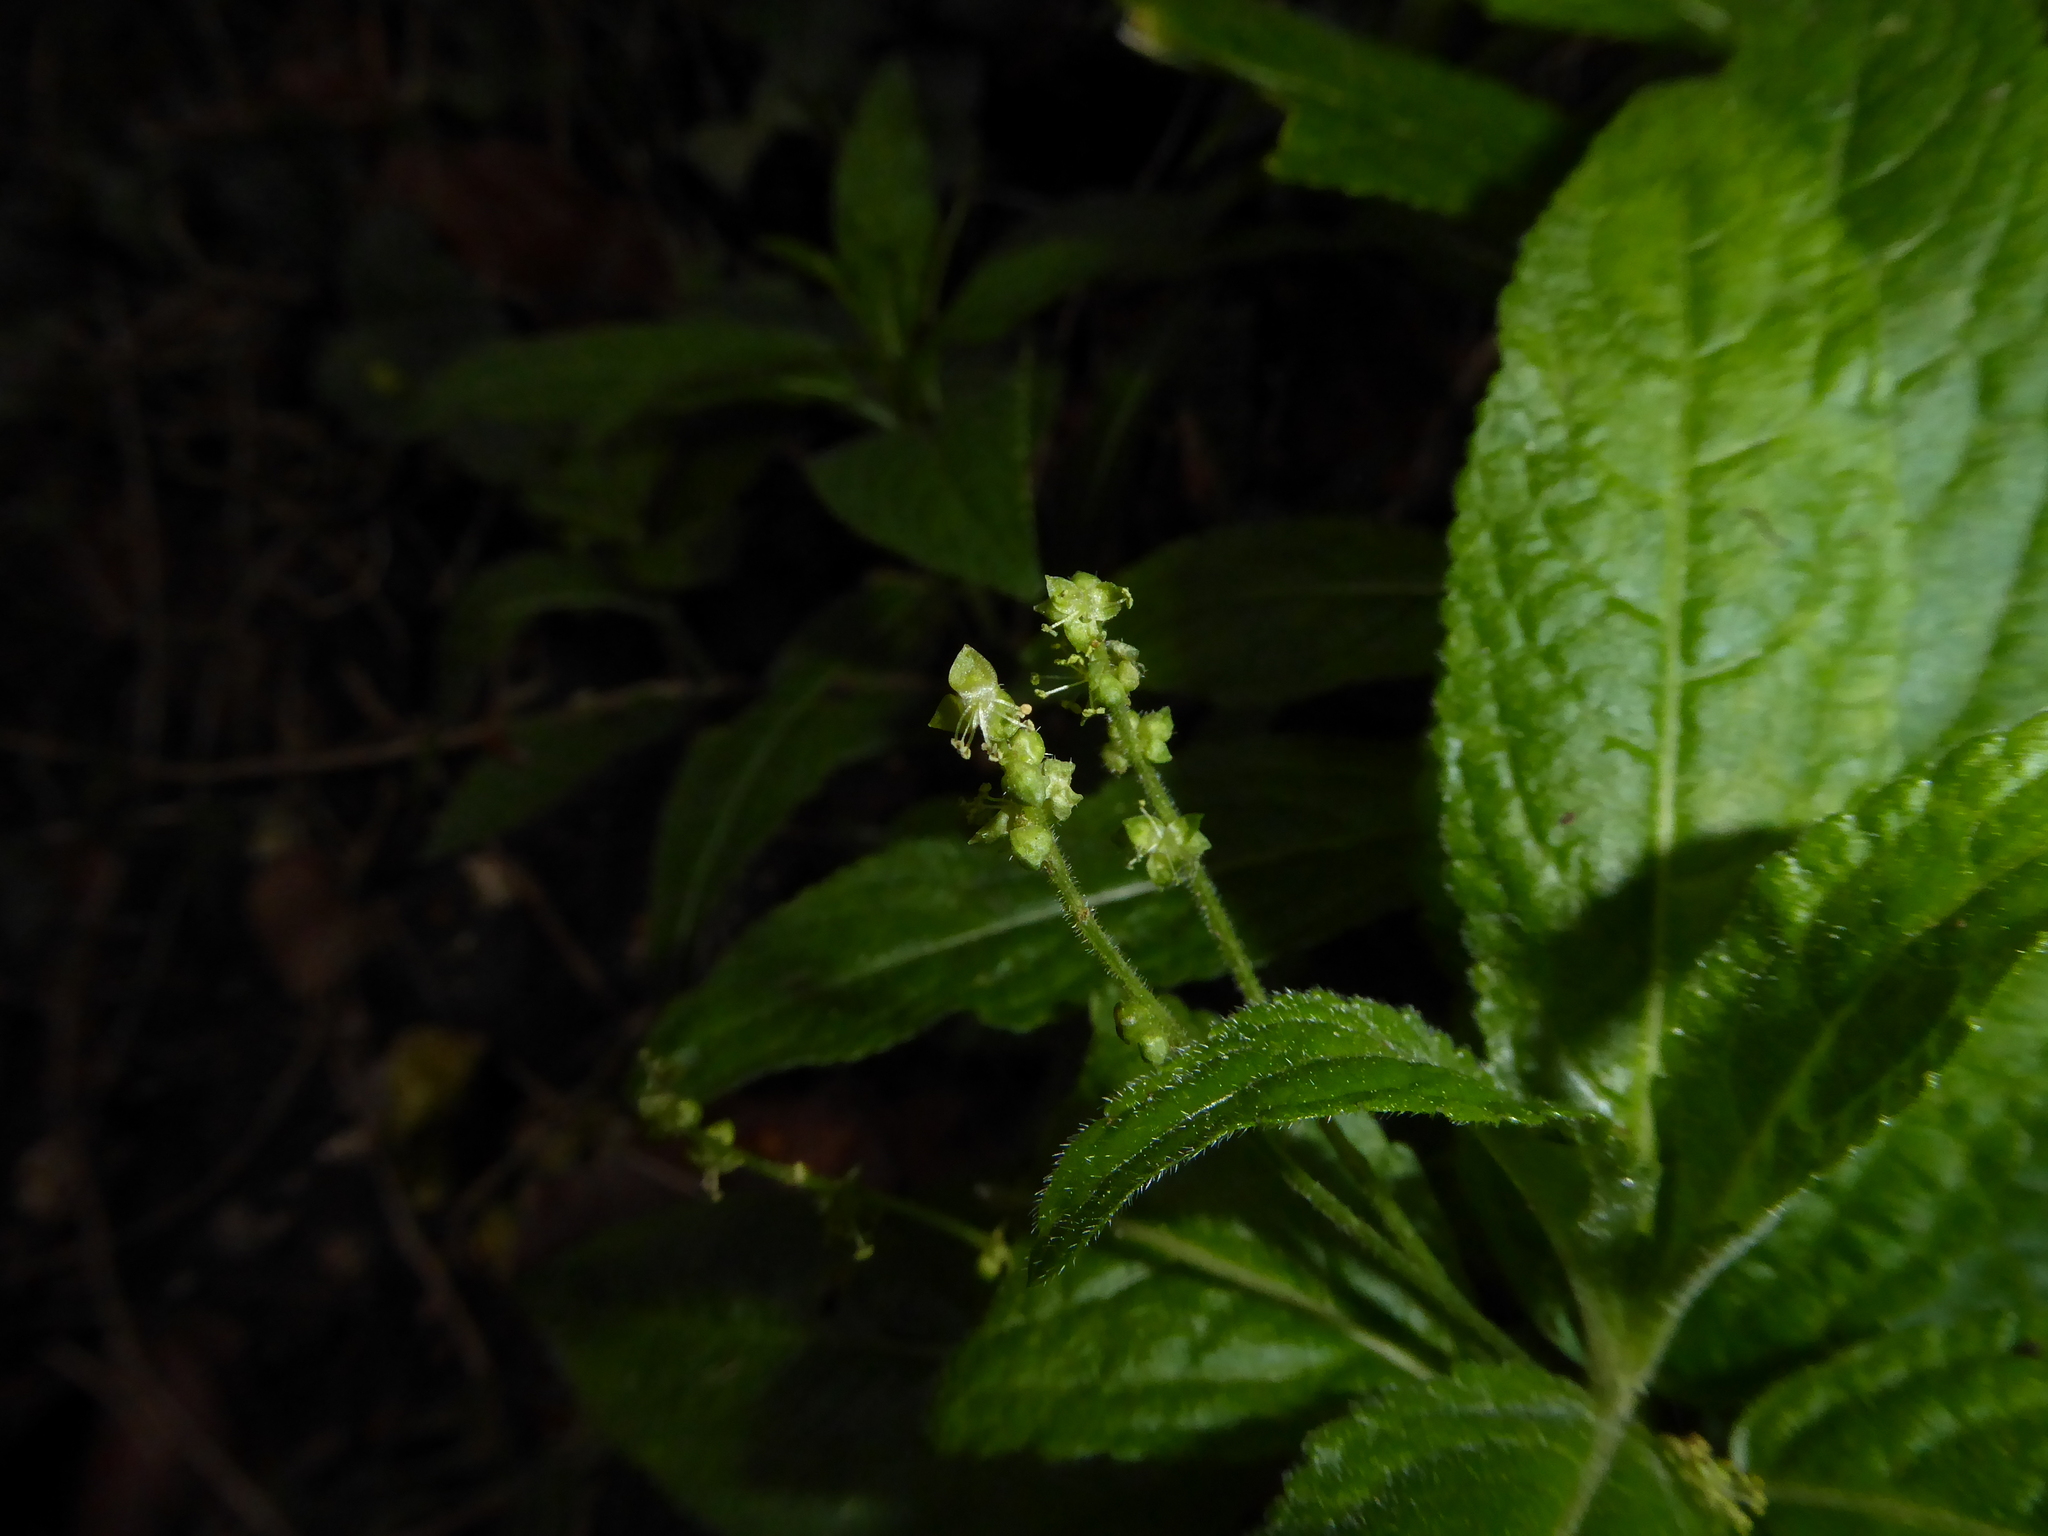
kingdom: Plantae
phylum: Tracheophyta
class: Magnoliopsida
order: Malpighiales
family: Euphorbiaceae
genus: Mercurialis
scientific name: Mercurialis perennis
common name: Dog mercury
